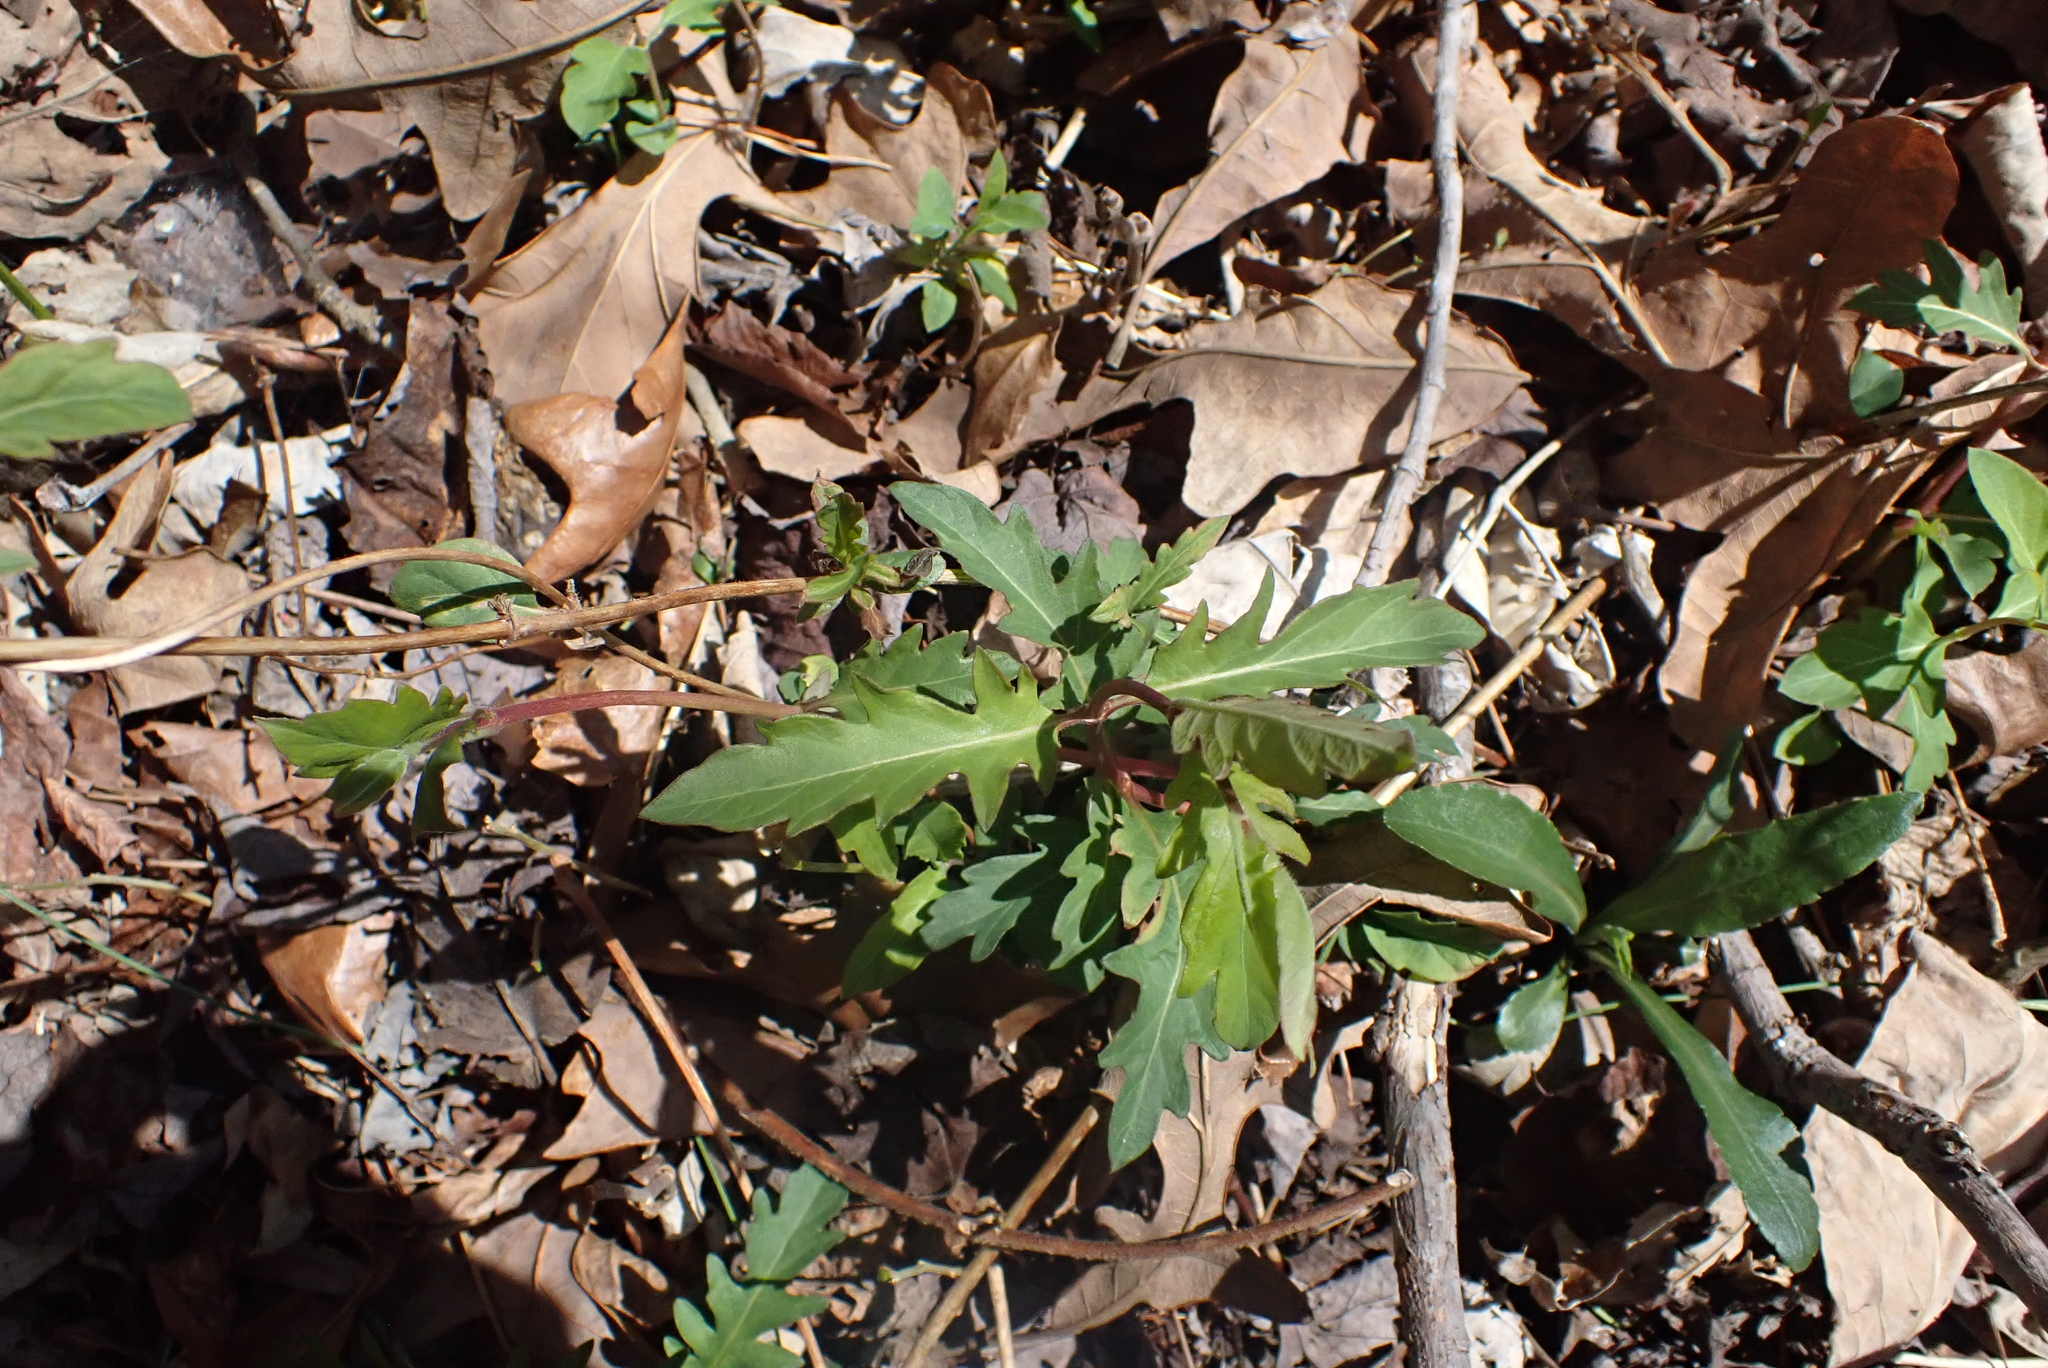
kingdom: Plantae
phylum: Tracheophyta
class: Magnoliopsida
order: Dipsacales
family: Caprifoliaceae
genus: Lonicera
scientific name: Lonicera japonica
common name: Japanese honeysuckle
